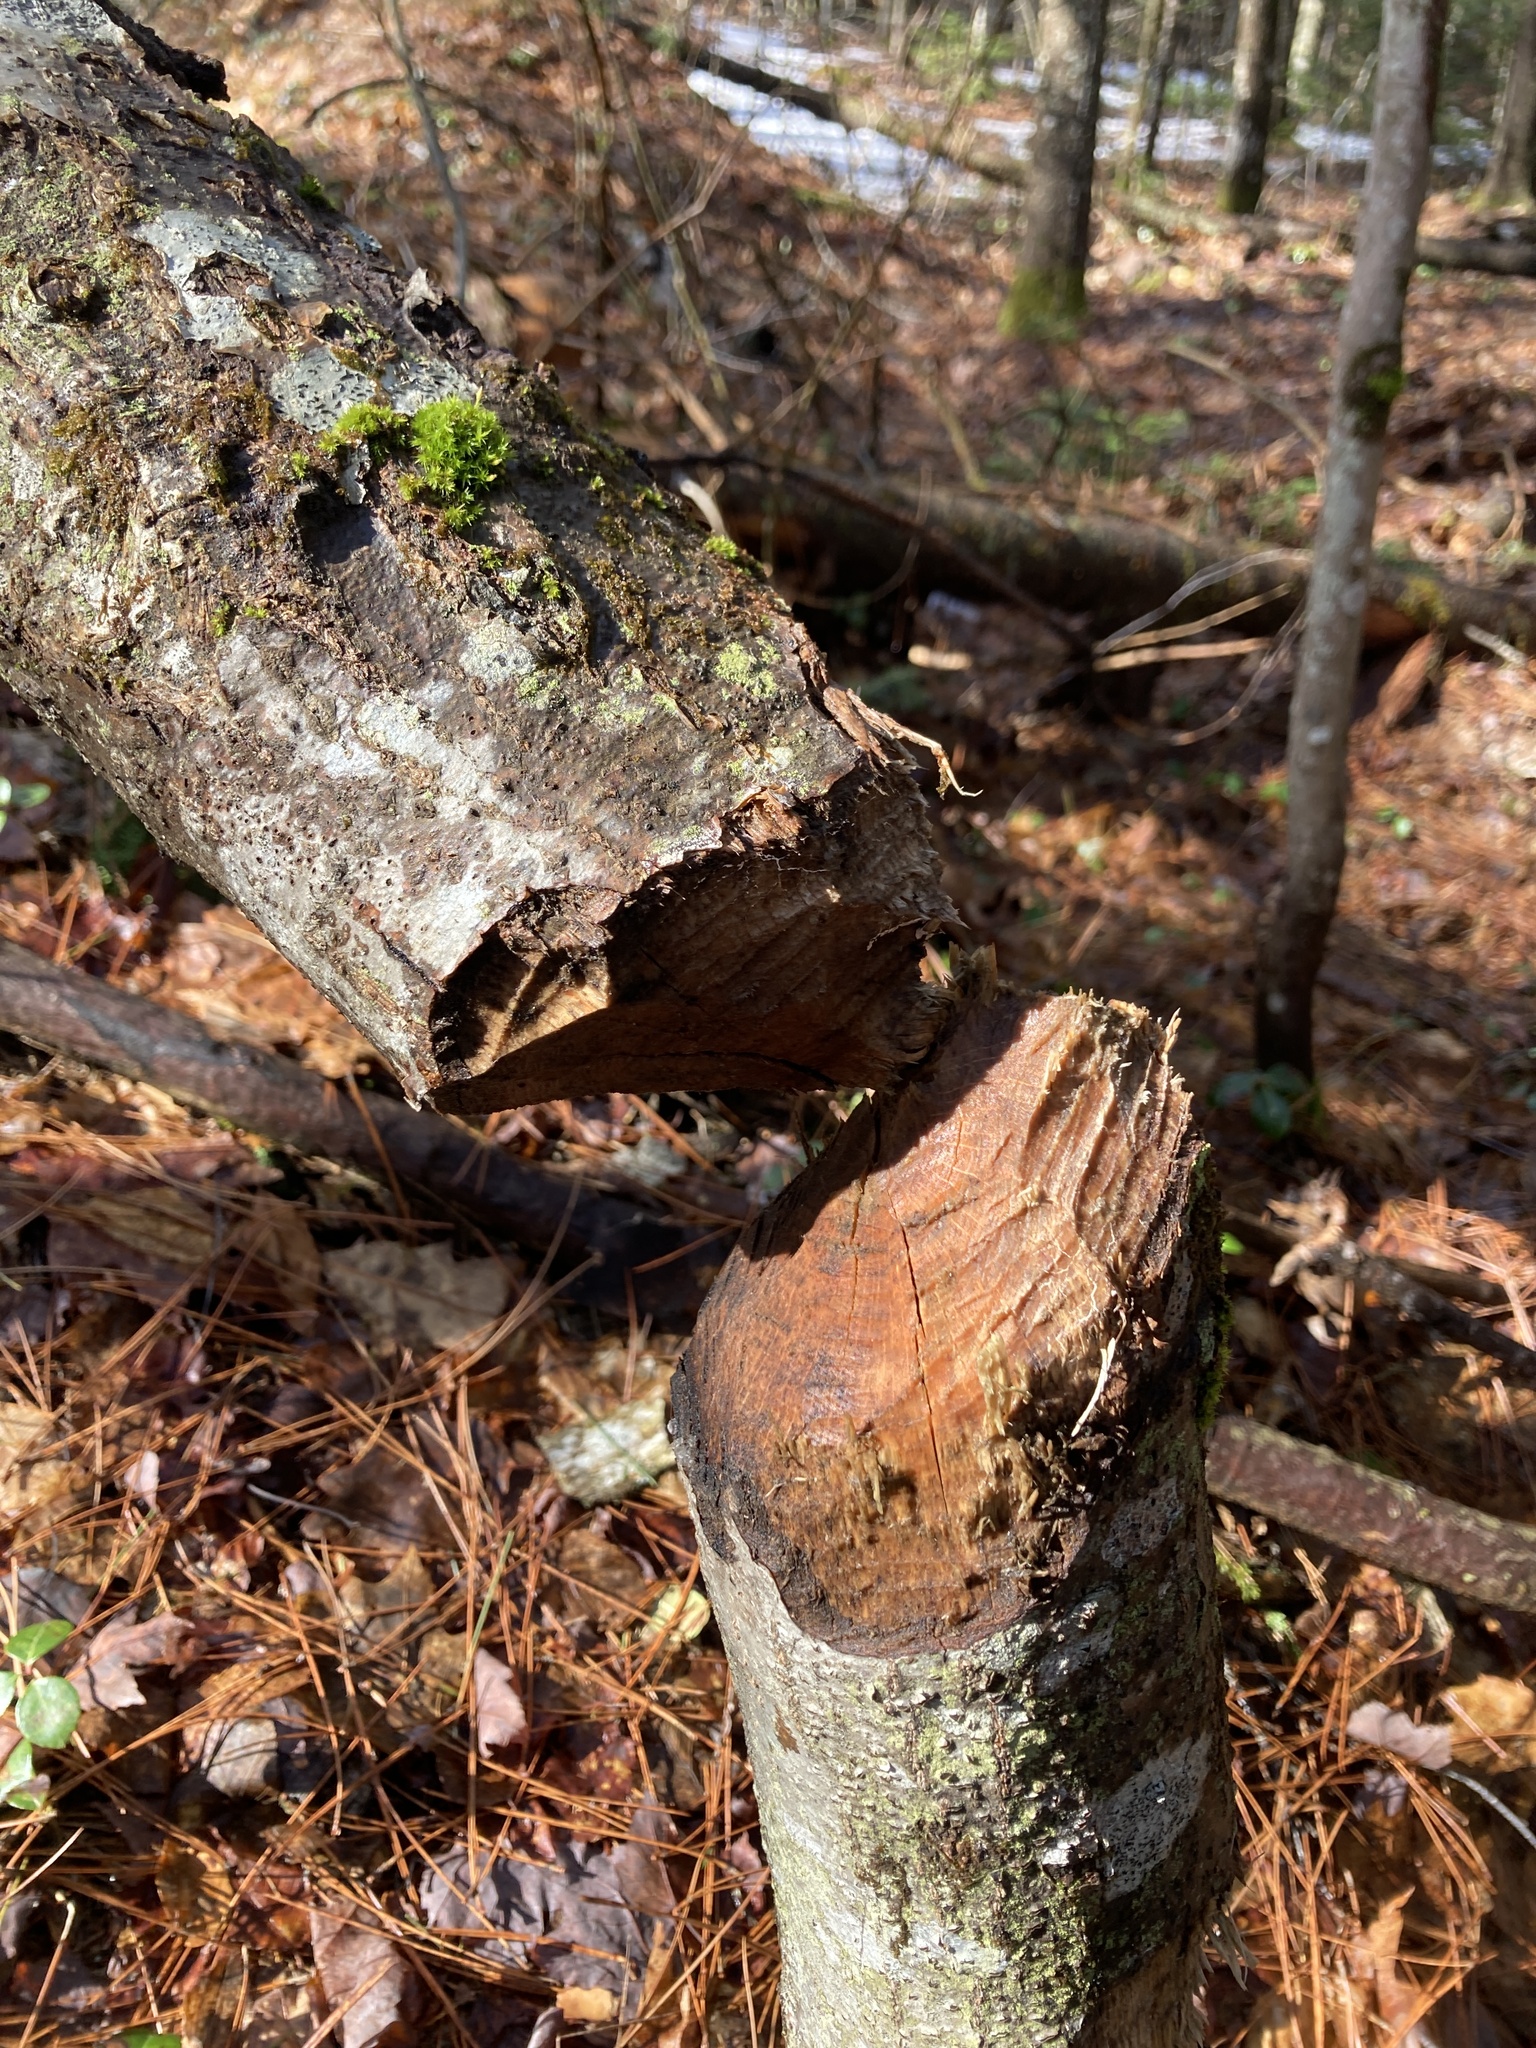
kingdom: Animalia
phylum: Chordata
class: Mammalia
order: Rodentia
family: Castoridae
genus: Castor
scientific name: Castor canadensis
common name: American beaver
